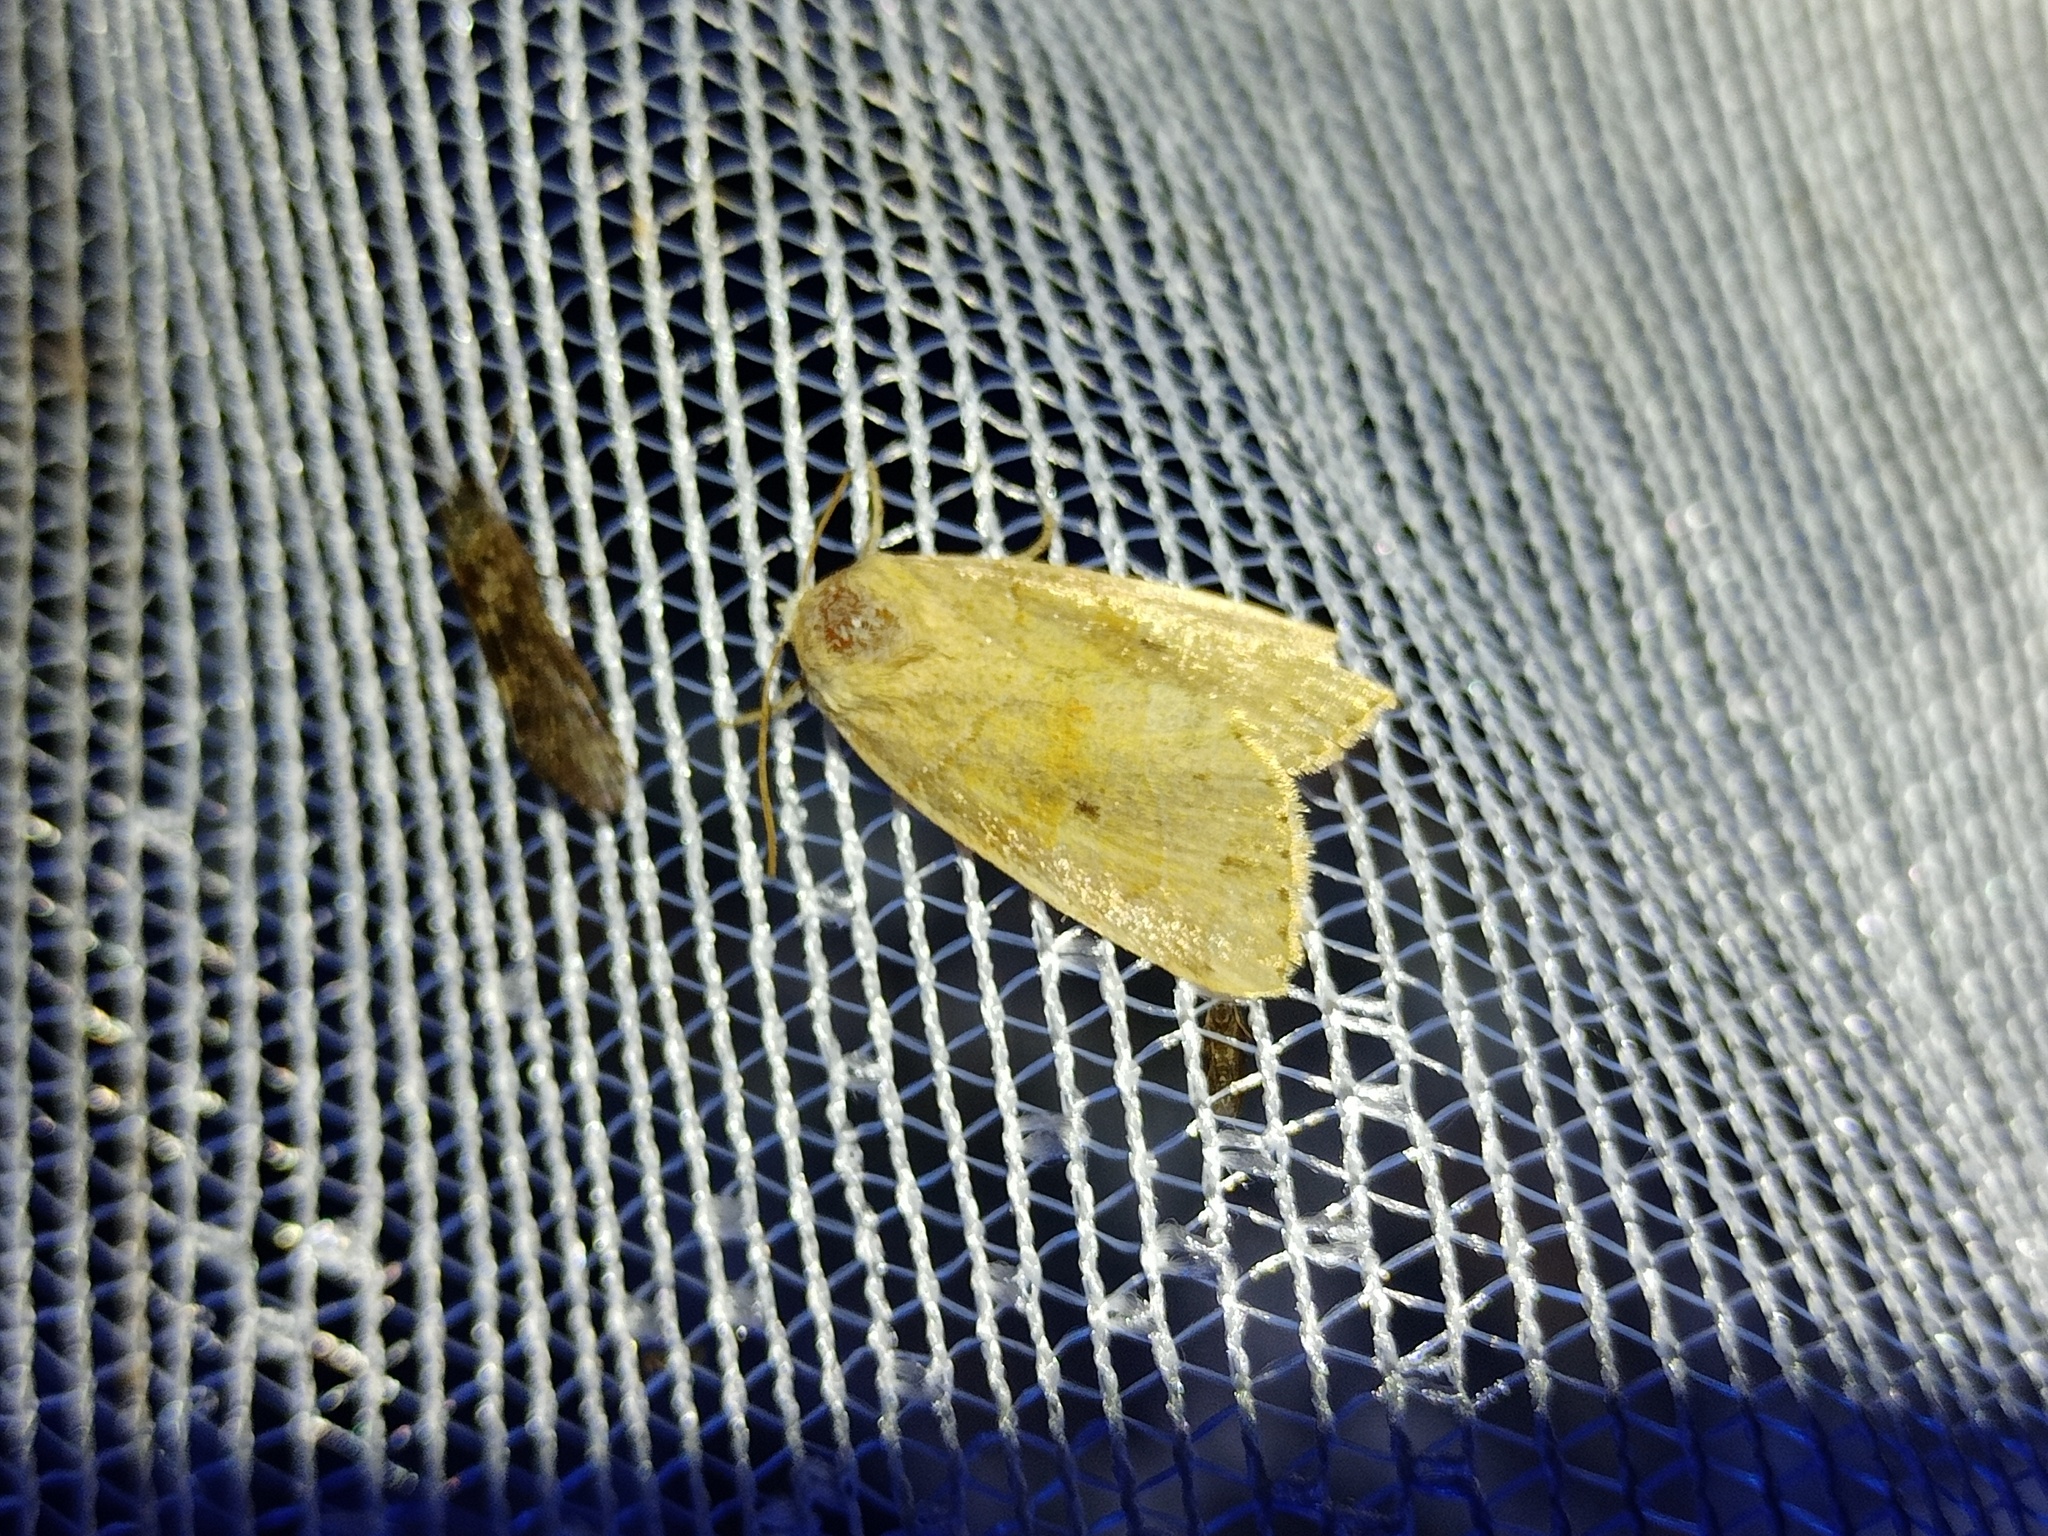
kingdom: Animalia
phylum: Arthropoda
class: Insecta
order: Lepidoptera
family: Noctuidae
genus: Cosmia
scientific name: Cosmia trapezina
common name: Dun-bar
